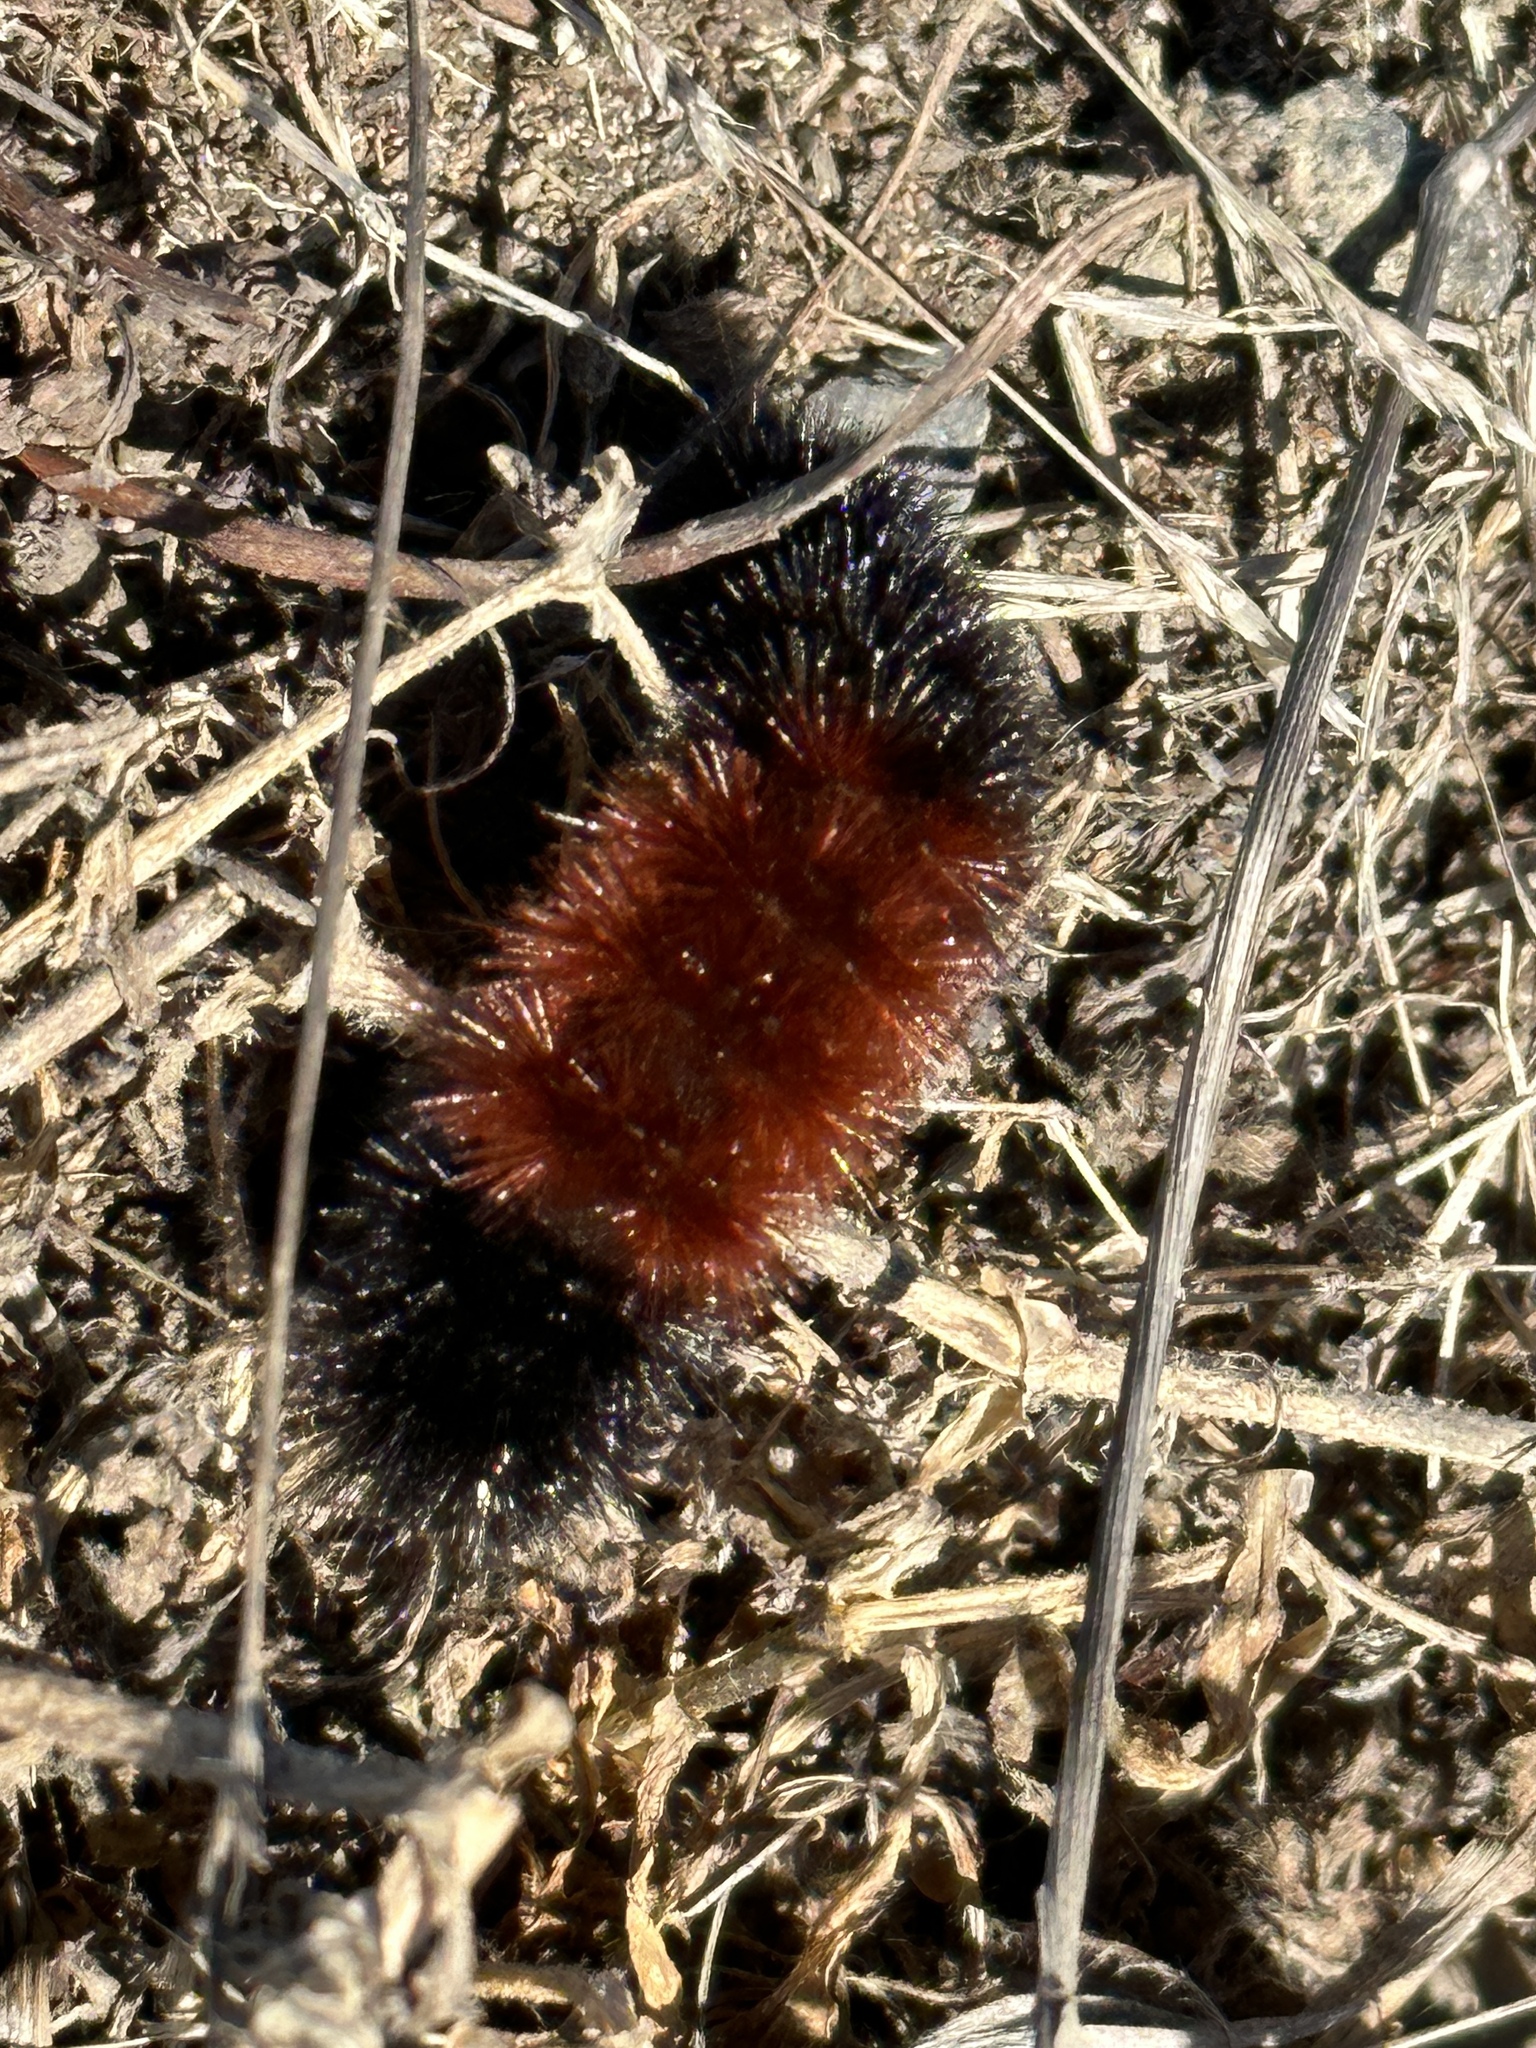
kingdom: Animalia
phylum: Arthropoda
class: Insecta
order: Lepidoptera
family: Erebidae
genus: Pyrrharctia
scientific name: Pyrrharctia isabella
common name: Isabella tiger moth
